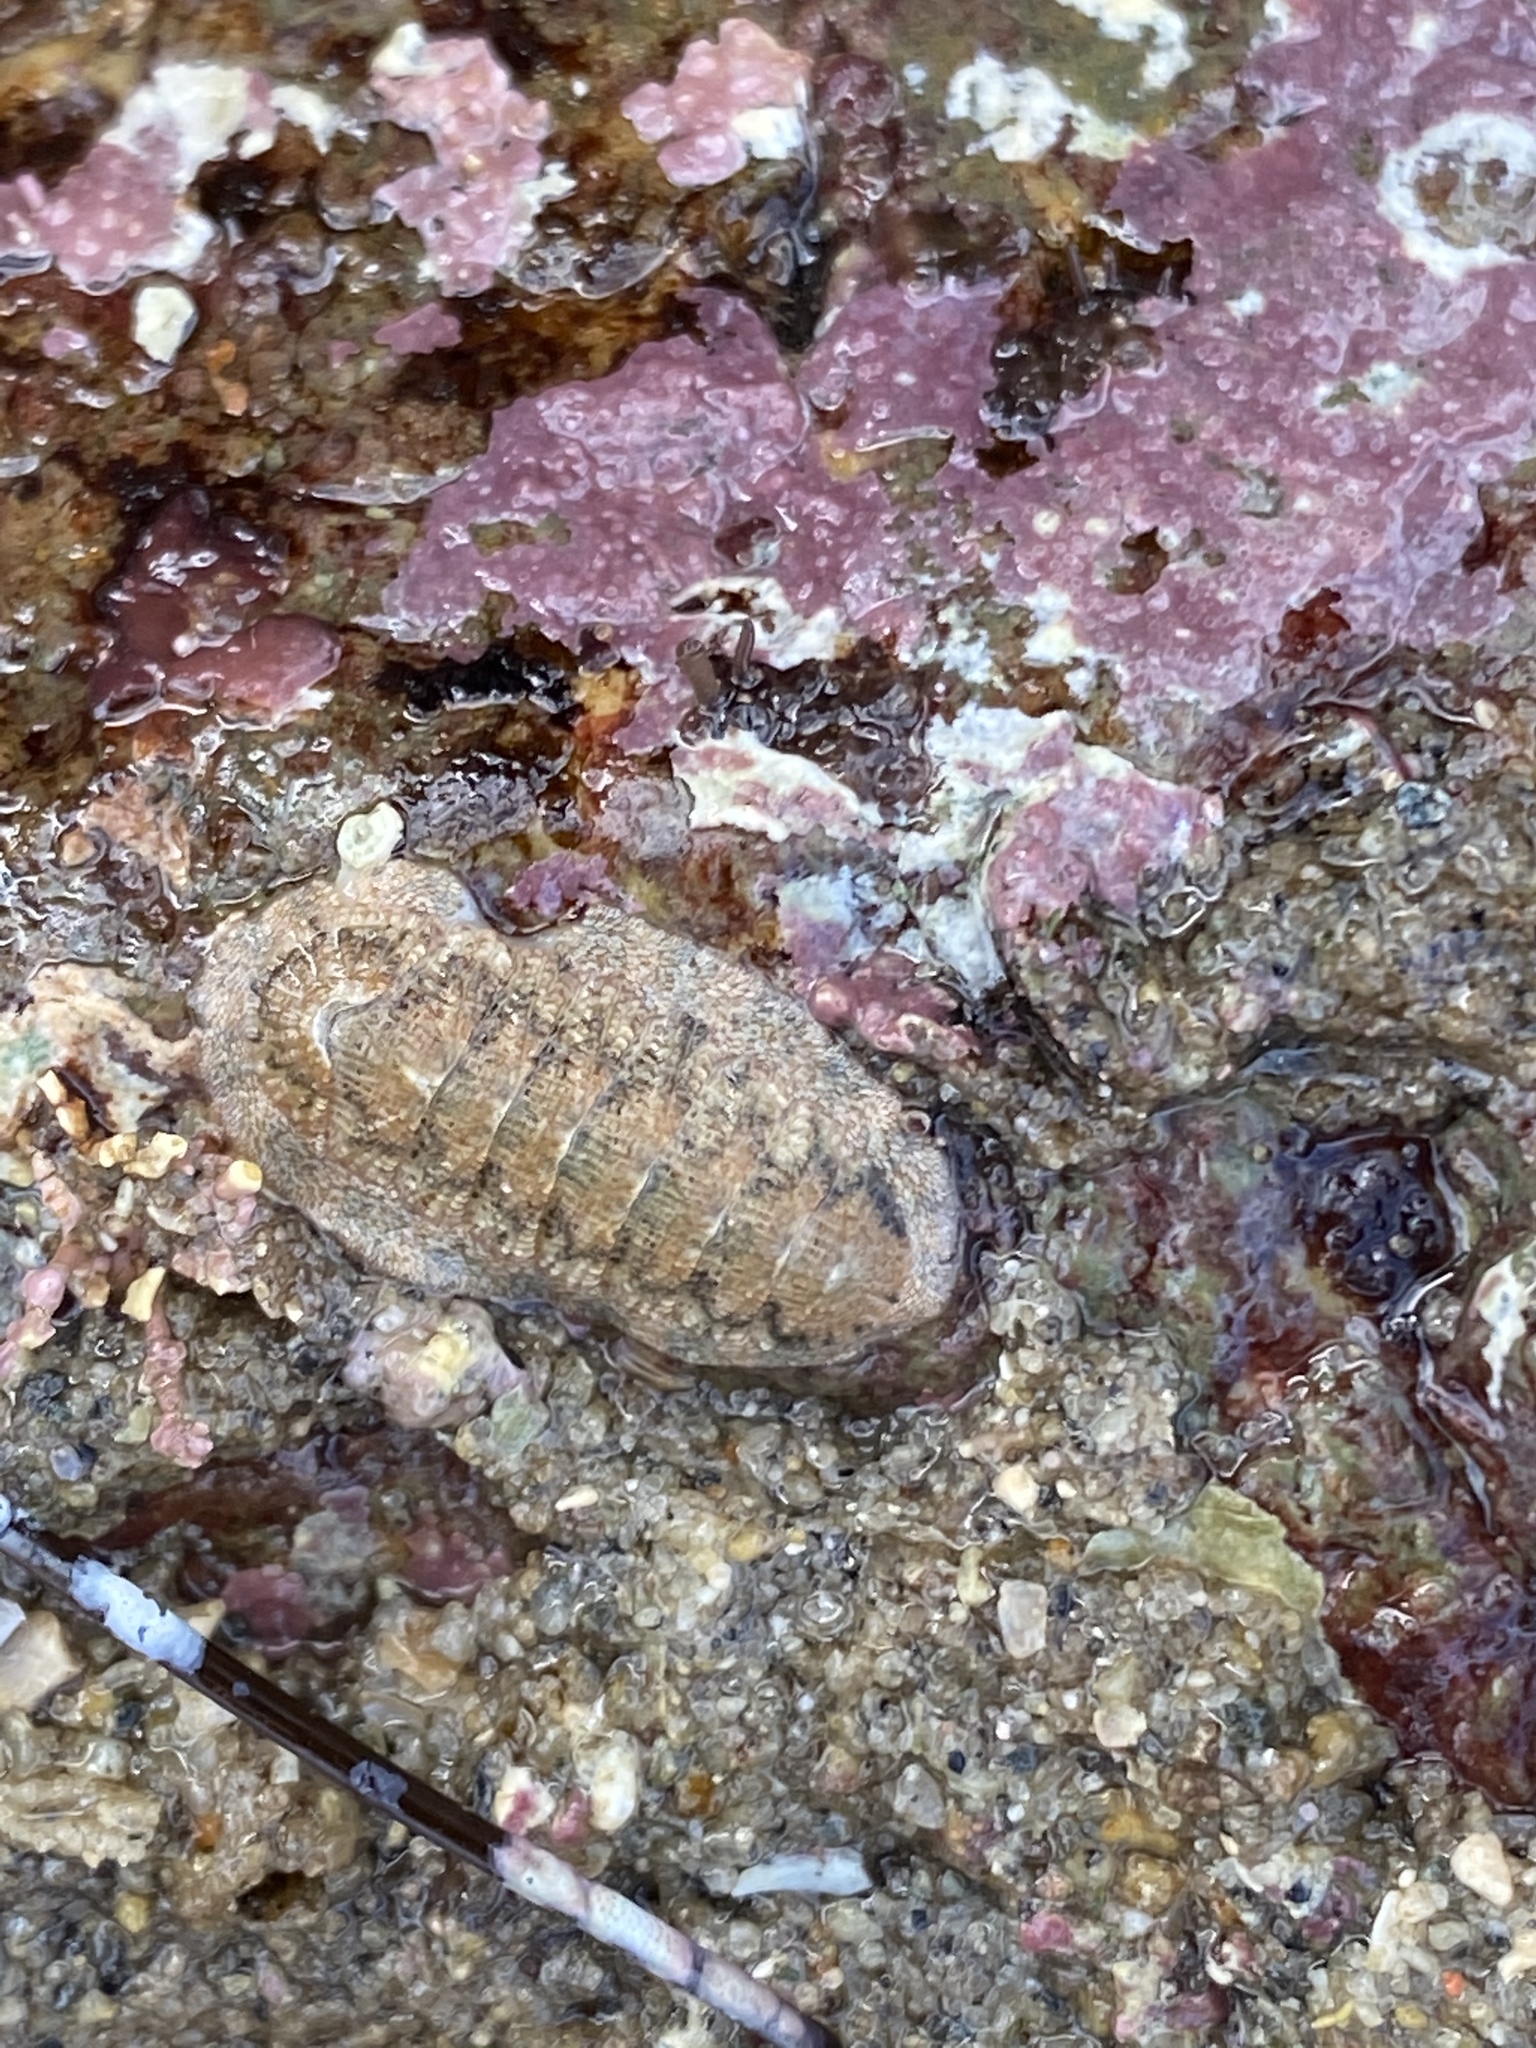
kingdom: Animalia
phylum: Mollusca
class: Polyplacophora
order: Chitonida
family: Ischnochitonidae
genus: Lepidozona
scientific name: Lepidozona pectinulata
